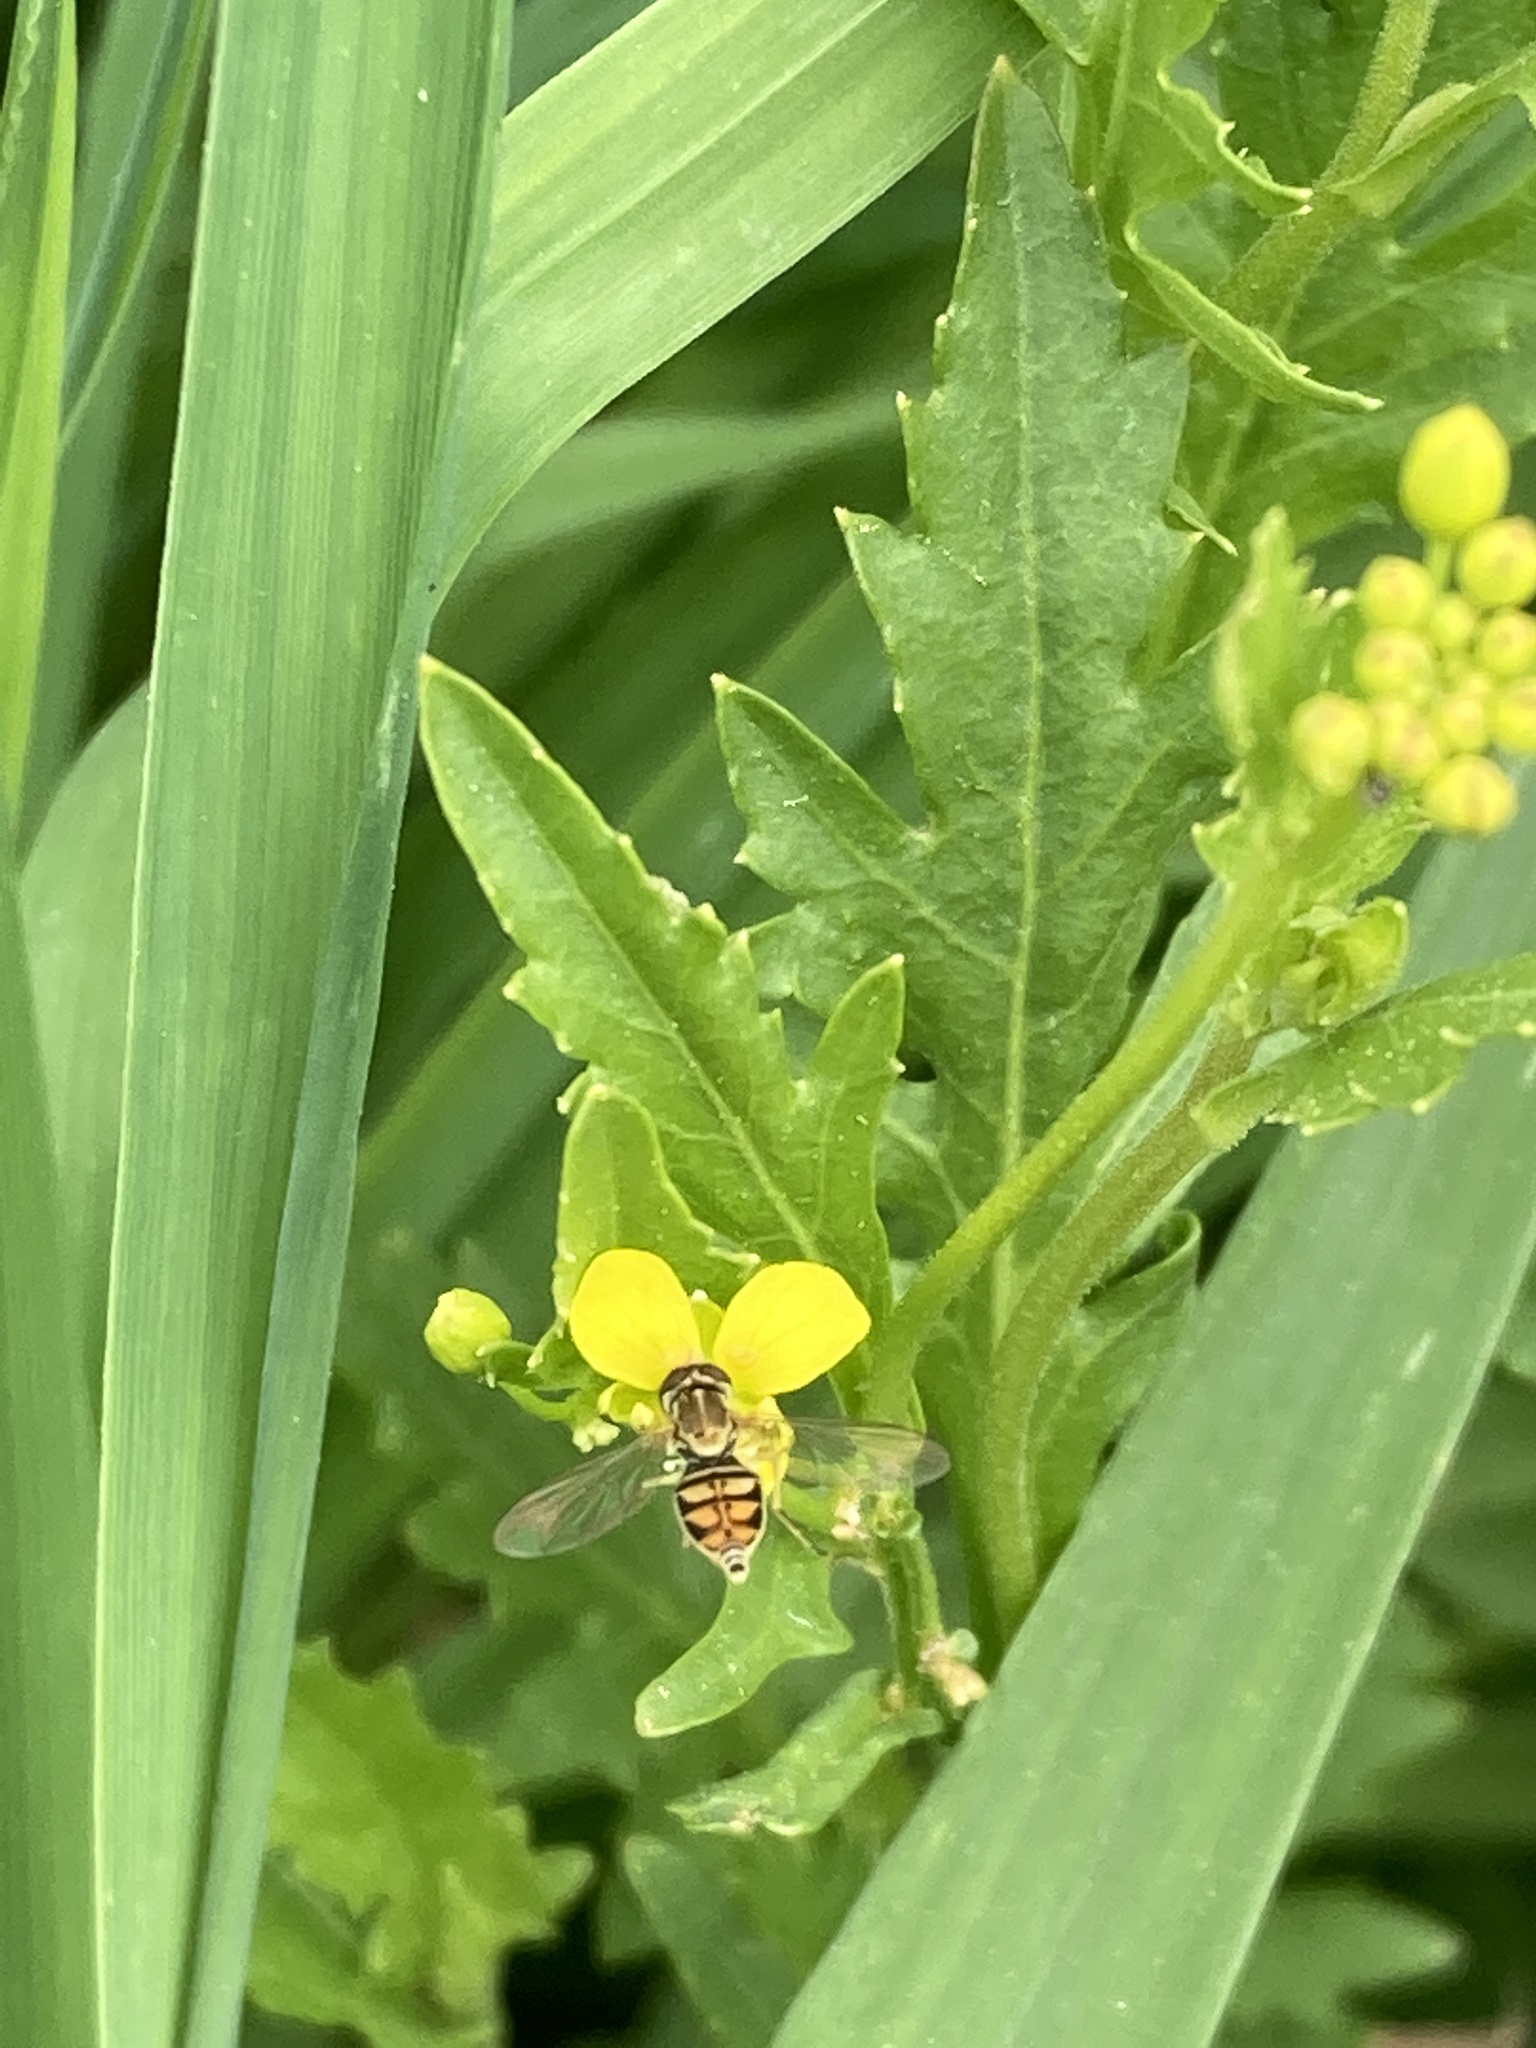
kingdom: Animalia
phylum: Arthropoda
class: Insecta
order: Diptera
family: Syrphidae
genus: Toxomerus
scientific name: Toxomerus marginatus
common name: Syrphid fly
